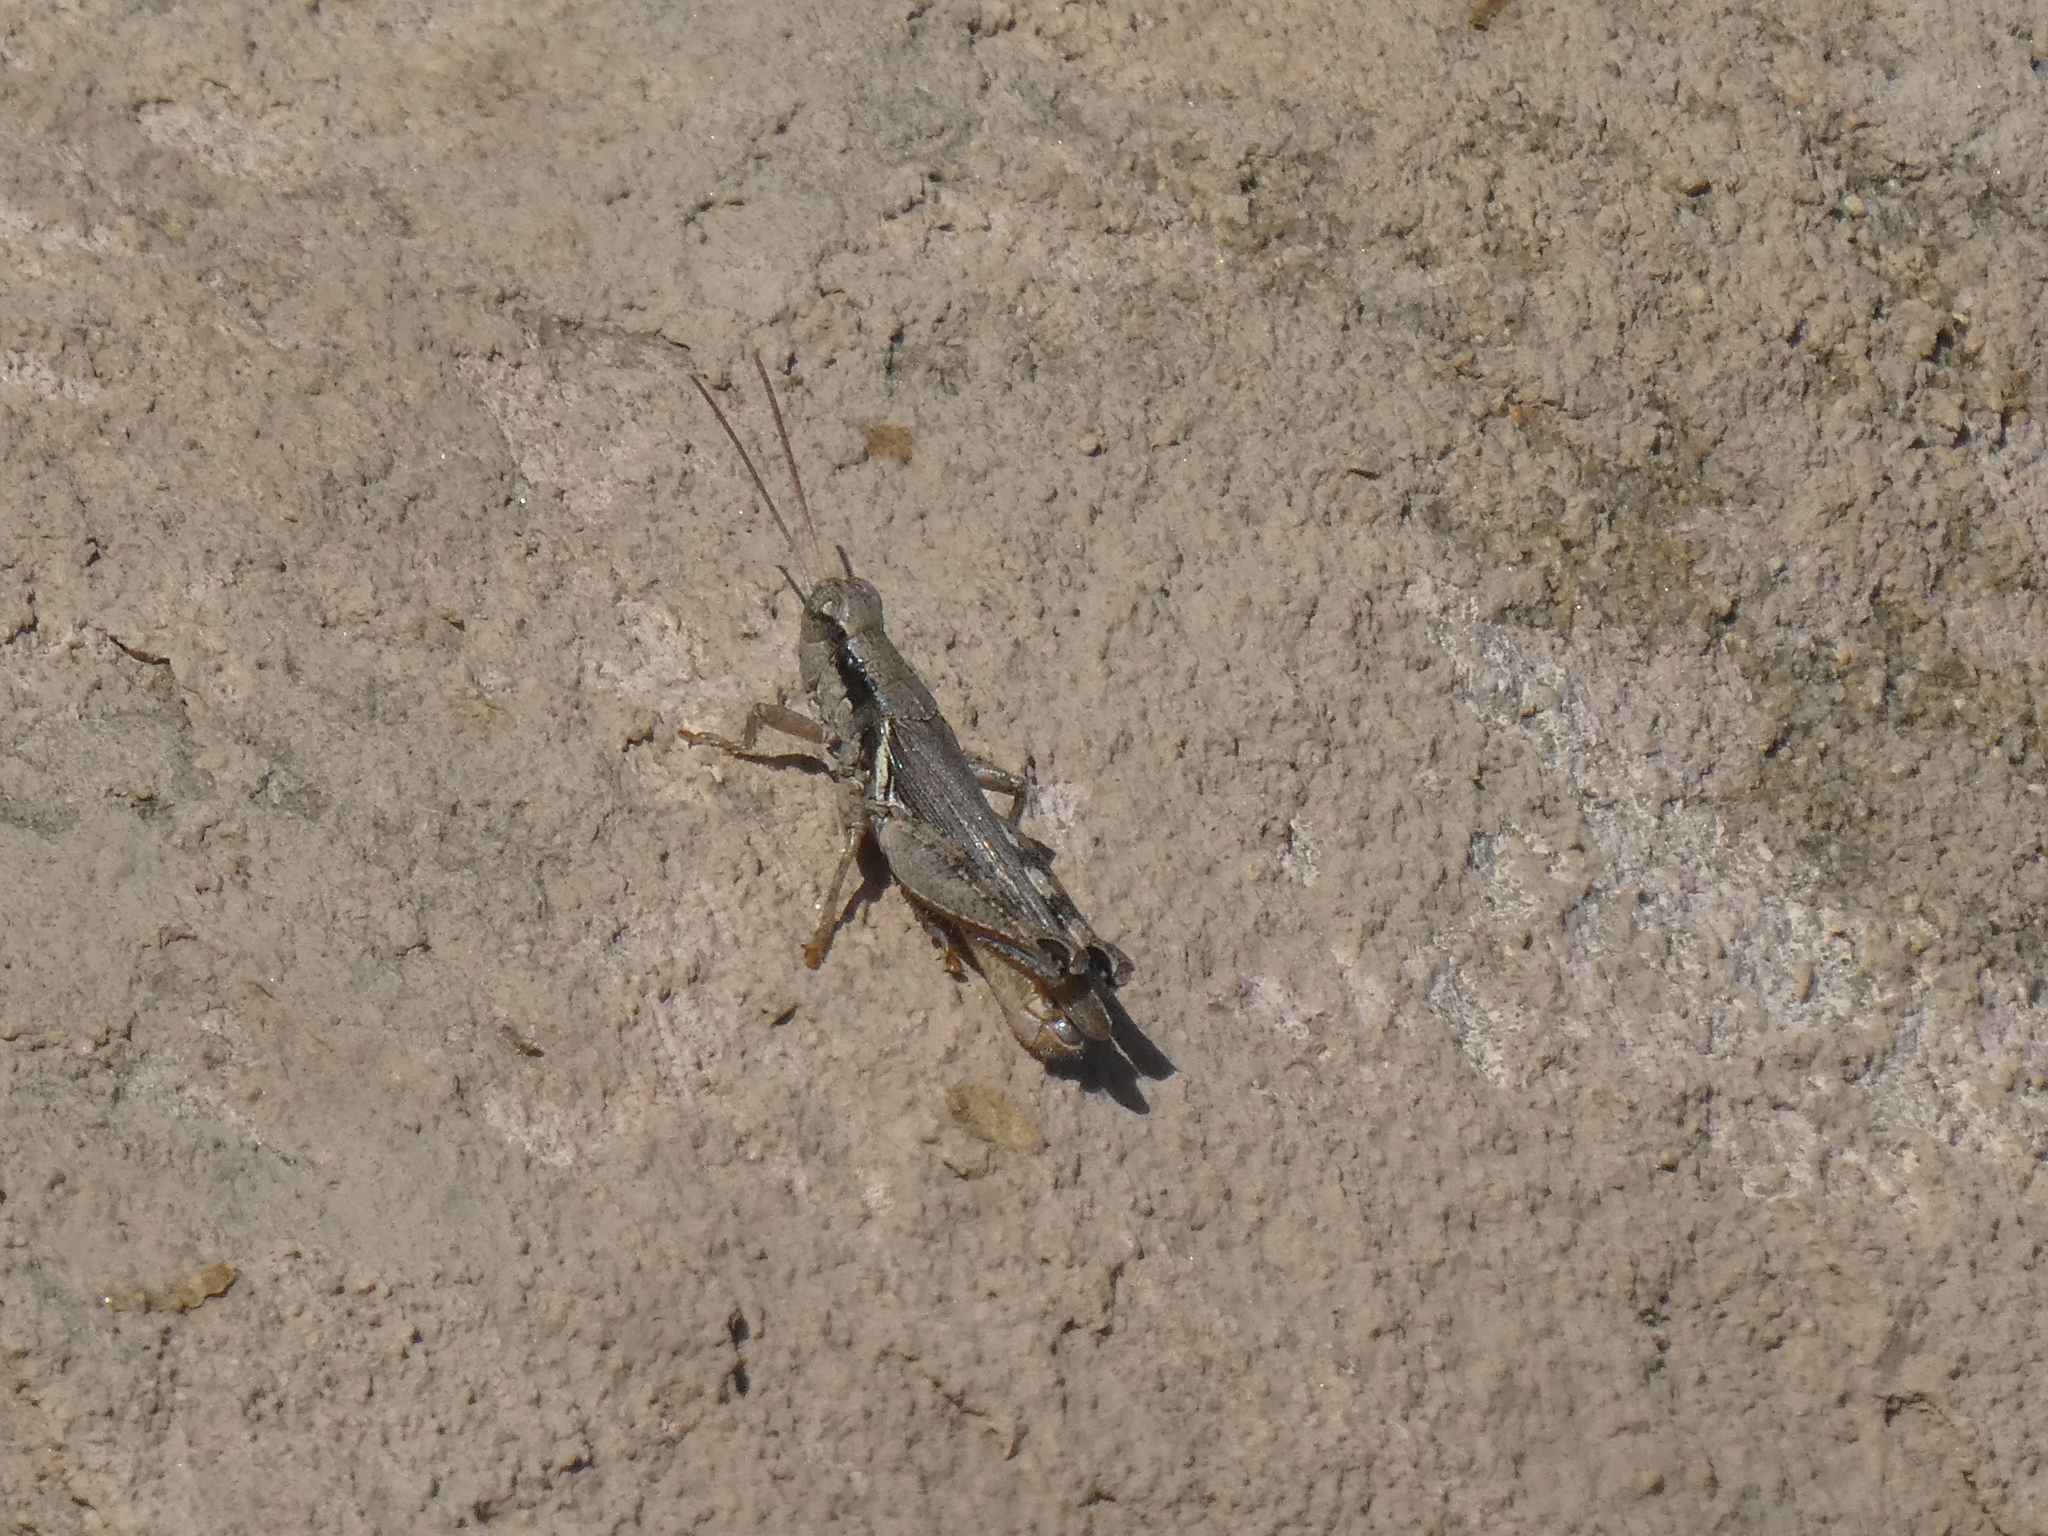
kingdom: Animalia
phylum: Arthropoda
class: Insecta
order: Orthoptera
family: Acrididae
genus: Melanoplus
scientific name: Melanoplus cinereus
